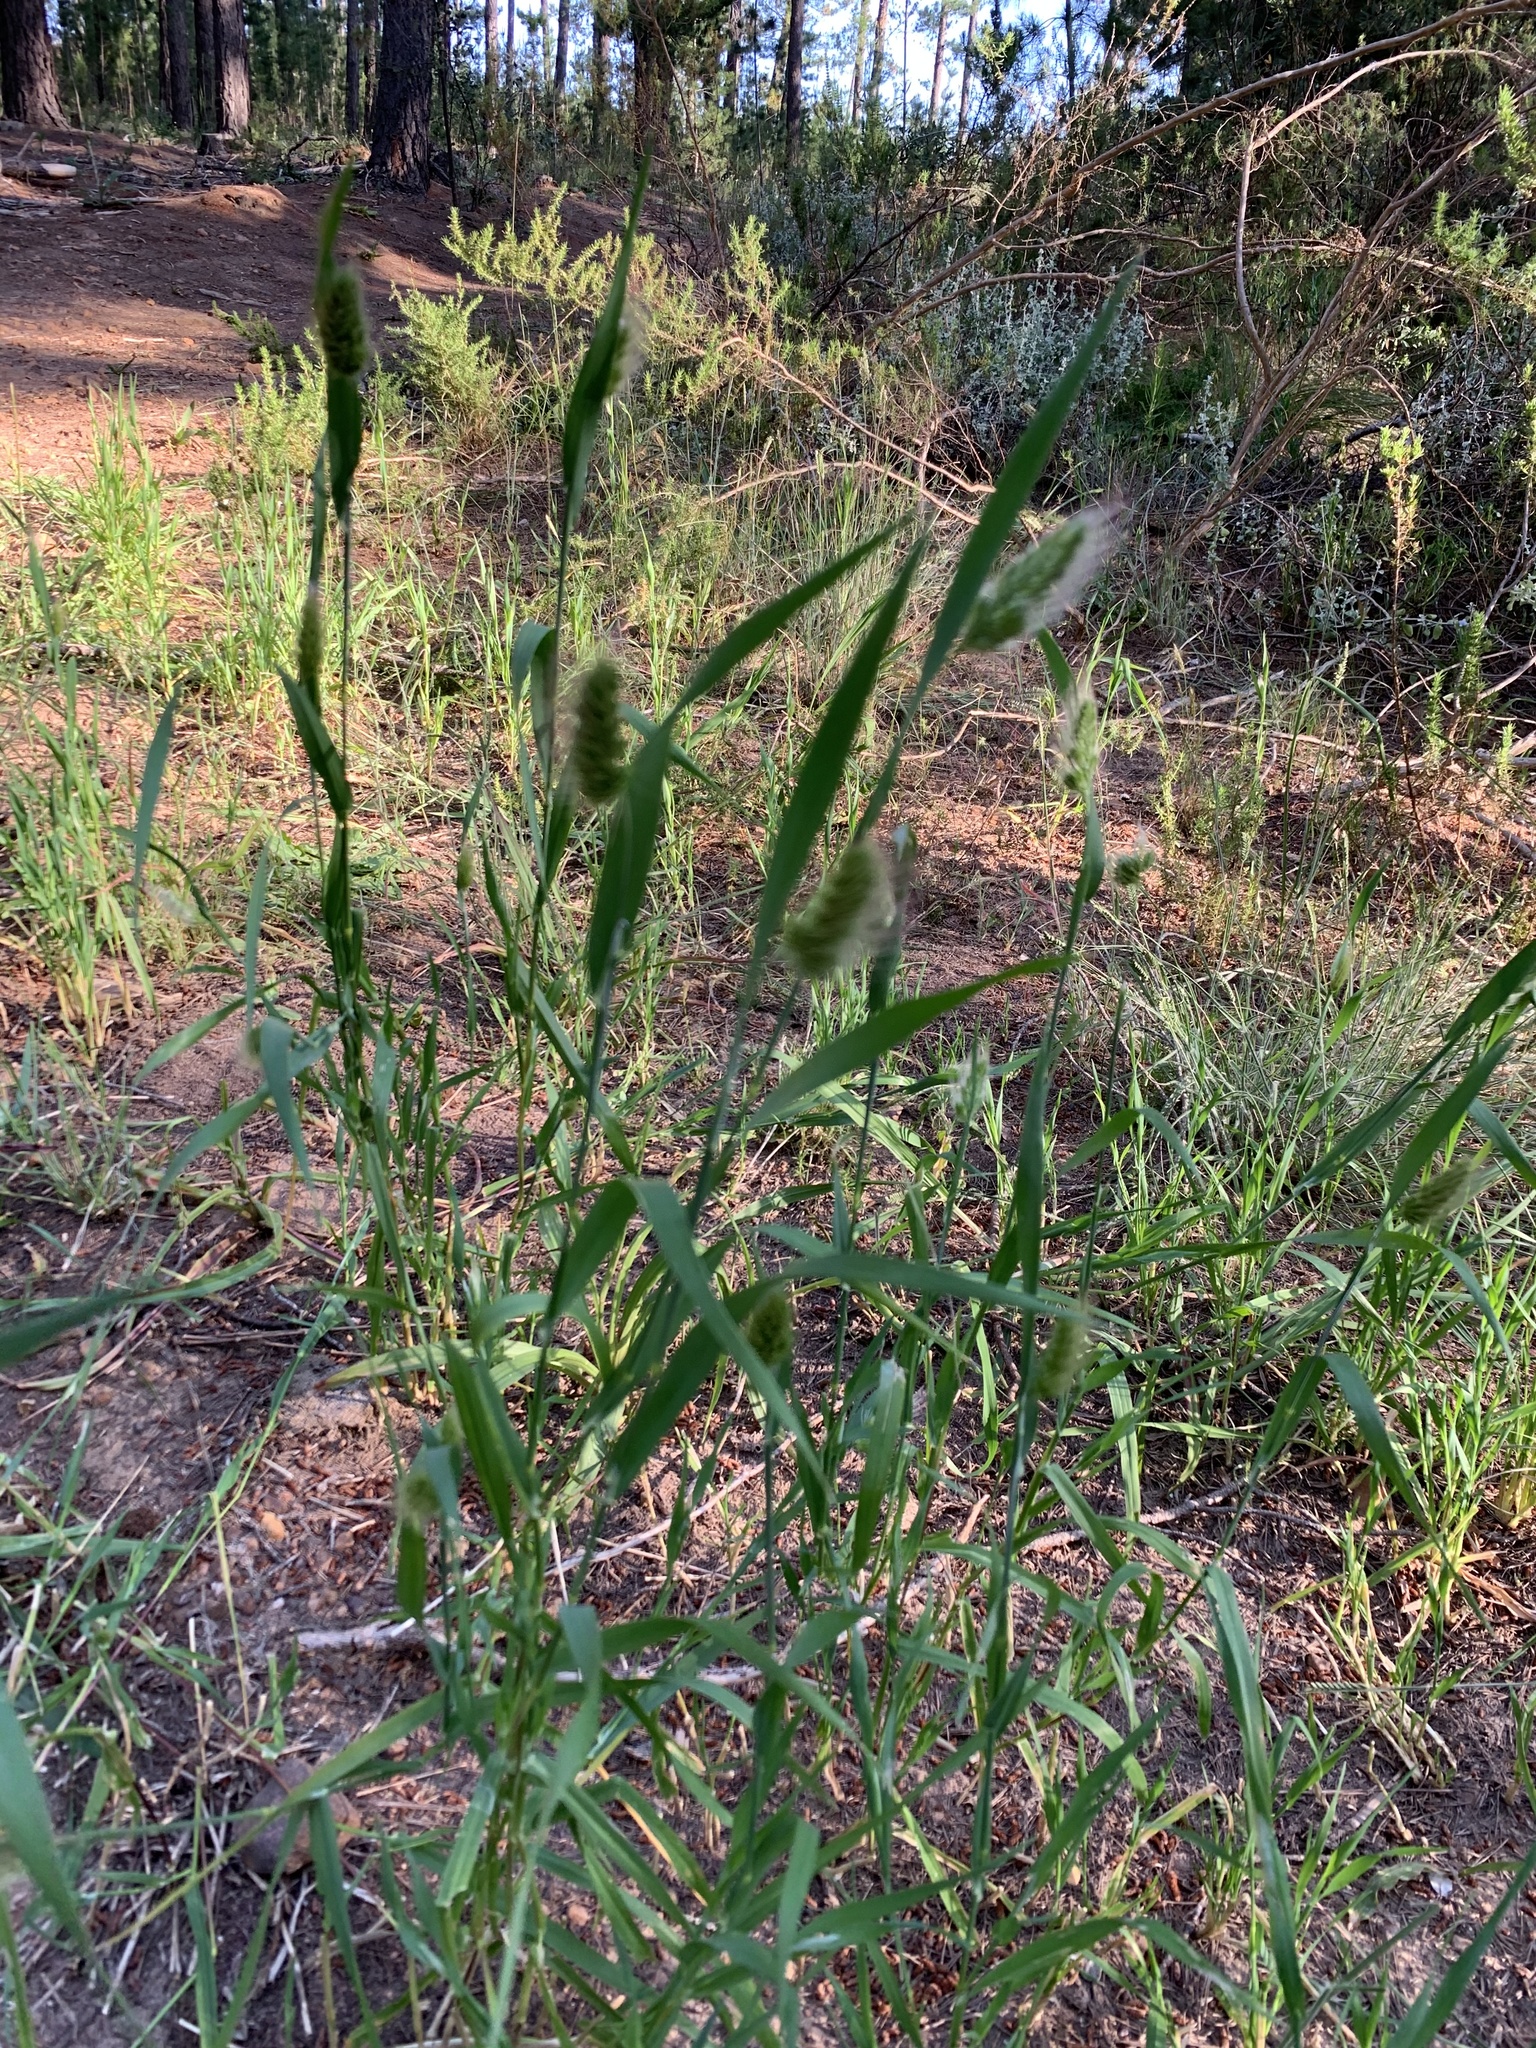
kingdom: Plantae
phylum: Tracheophyta
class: Liliopsida
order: Poales
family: Poaceae
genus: Cynosurus
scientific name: Cynosurus echinatus
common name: Rough dog's-tail
